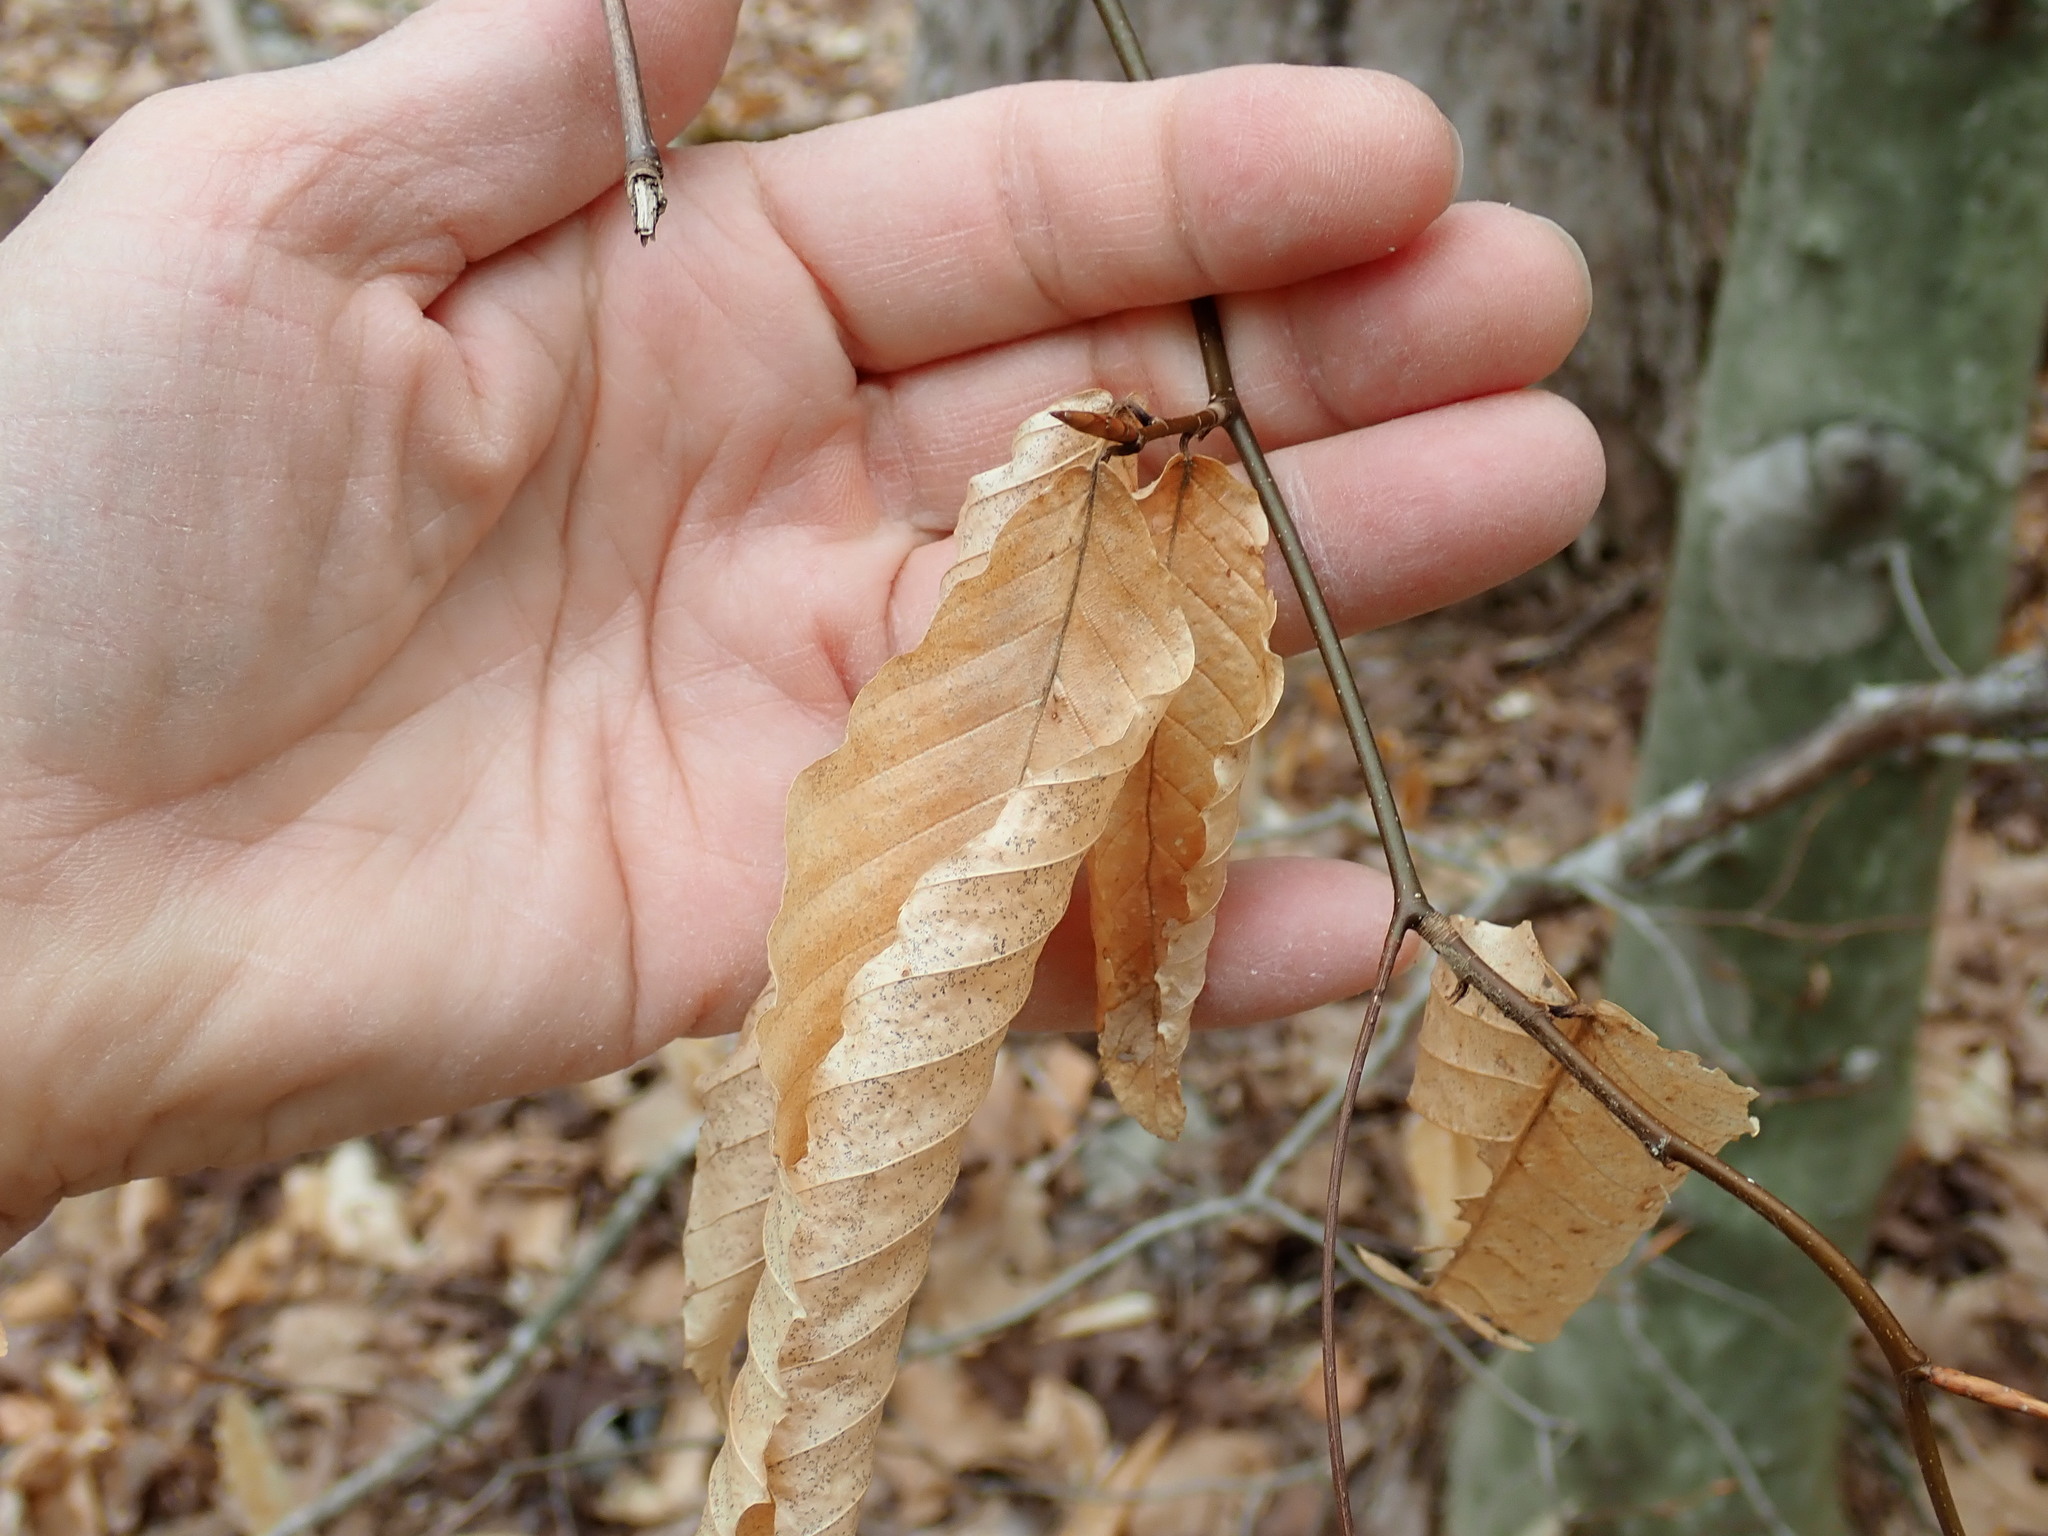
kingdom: Plantae
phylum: Tracheophyta
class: Magnoliopsida
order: Fagales
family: Fagaceae
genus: Fagus
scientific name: Fagus grandifolia
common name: American beech
